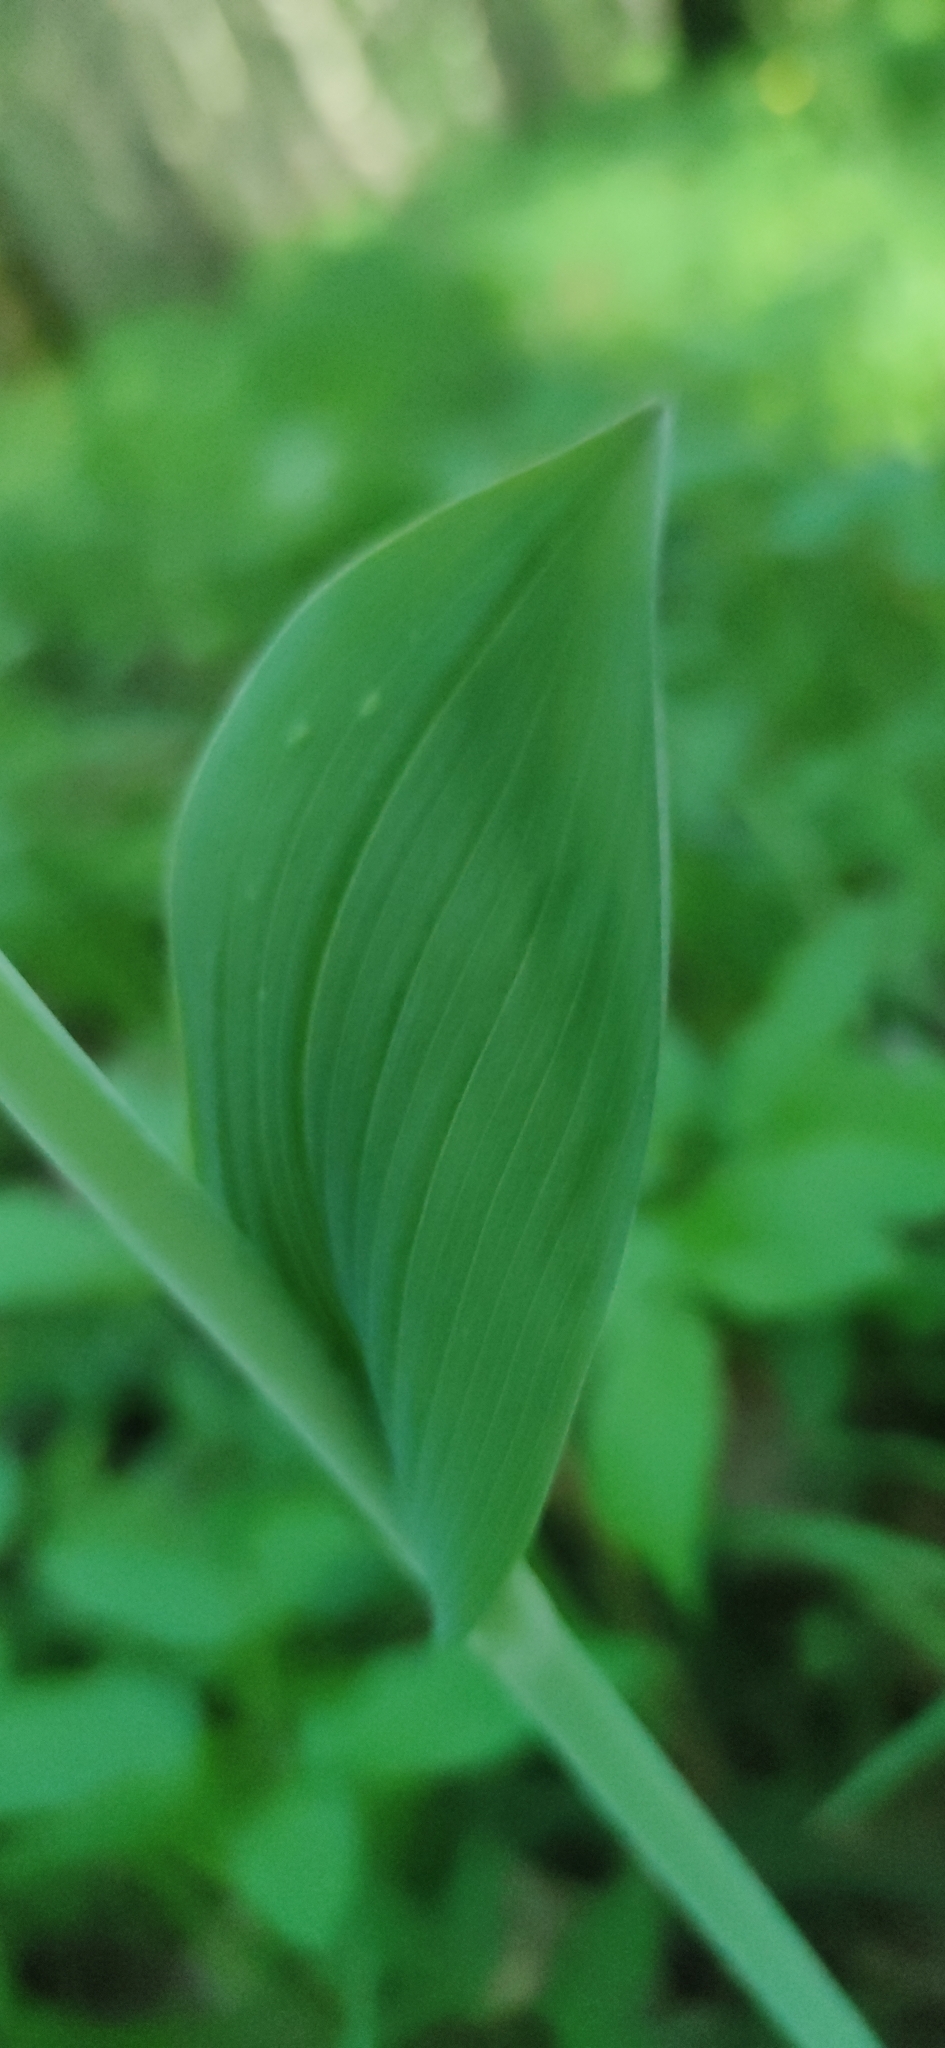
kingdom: Plantae
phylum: Tracheophyta
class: Liliopsida
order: Asparagales
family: Asparagaceae
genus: Polygonatum
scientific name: Polygonatum multiflorum
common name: Solomon's-seal
